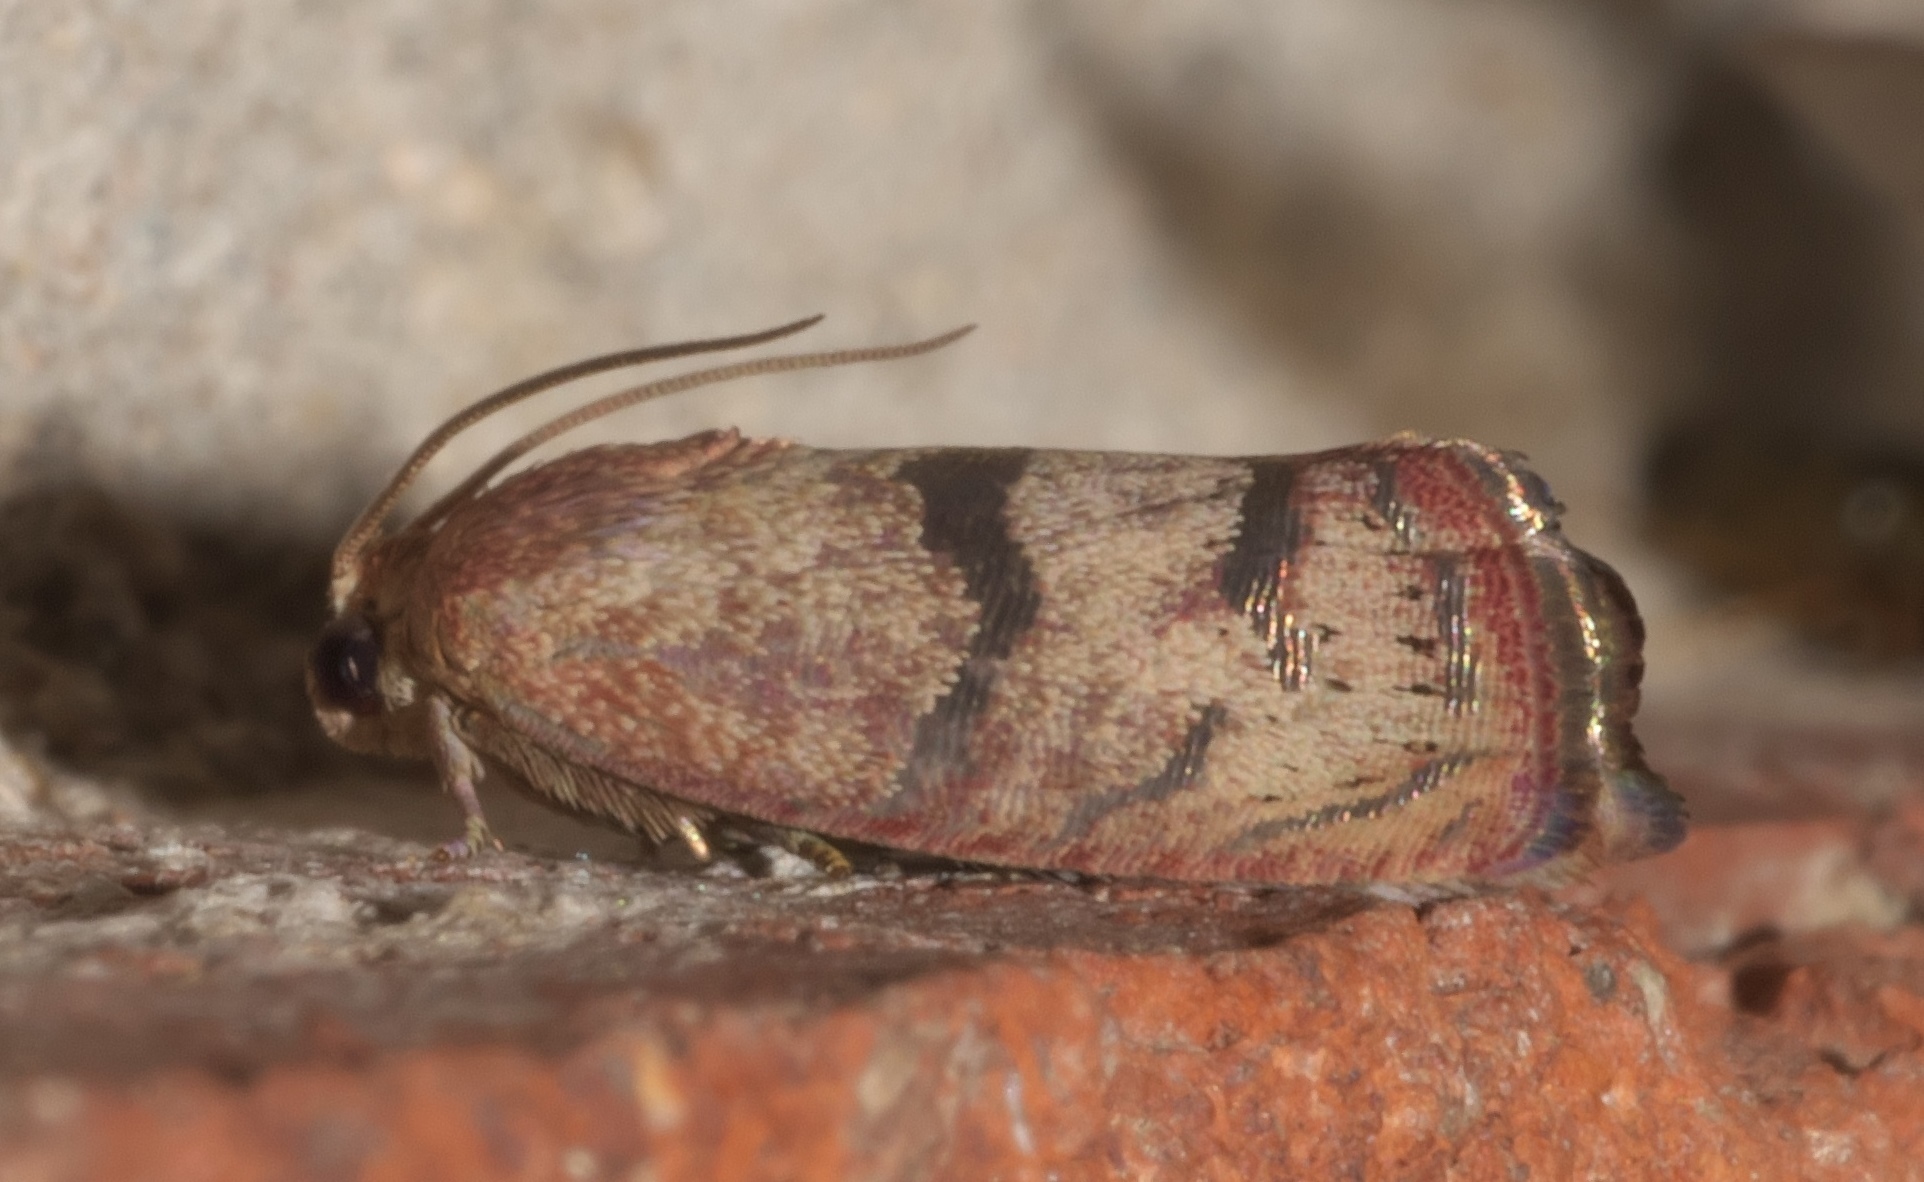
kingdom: Animalia
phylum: Arthropoda
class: Insecta
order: Lepidoptera
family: Tortricidae
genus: Cydia
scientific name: Cydia latiferreana
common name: Filbertworm moth
